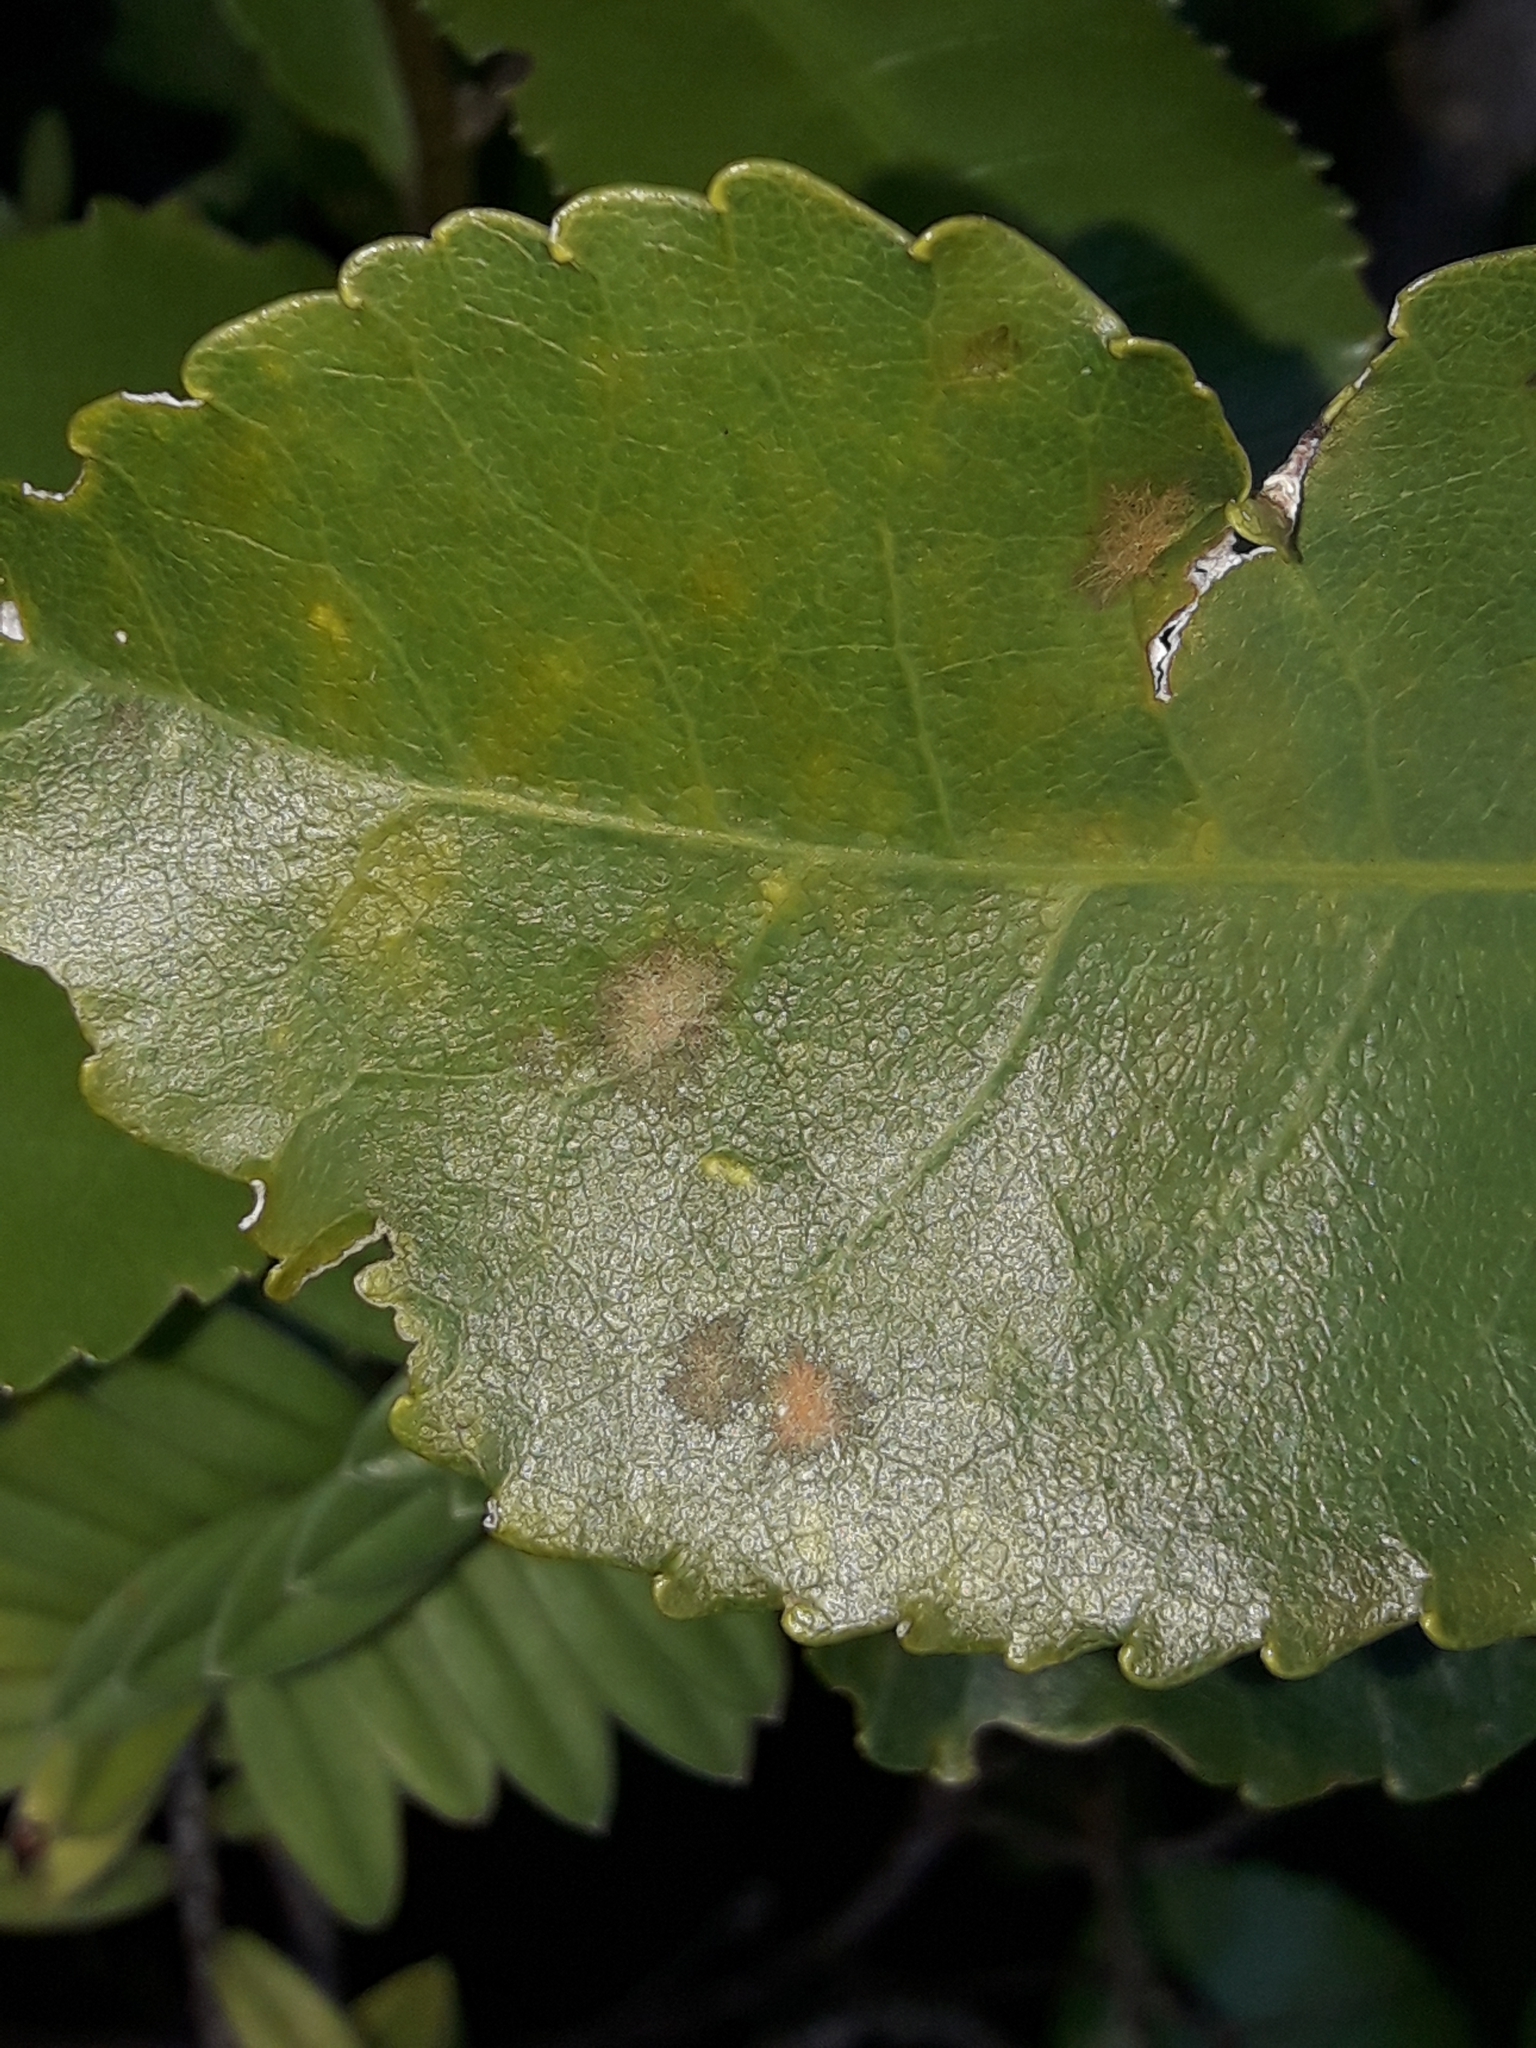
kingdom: Plantae
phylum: Chlorophyta
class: Ulvophyceae
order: Trentepohliales
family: Trentepohliaceae
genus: Cephaleuros
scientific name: Cephaleuros
